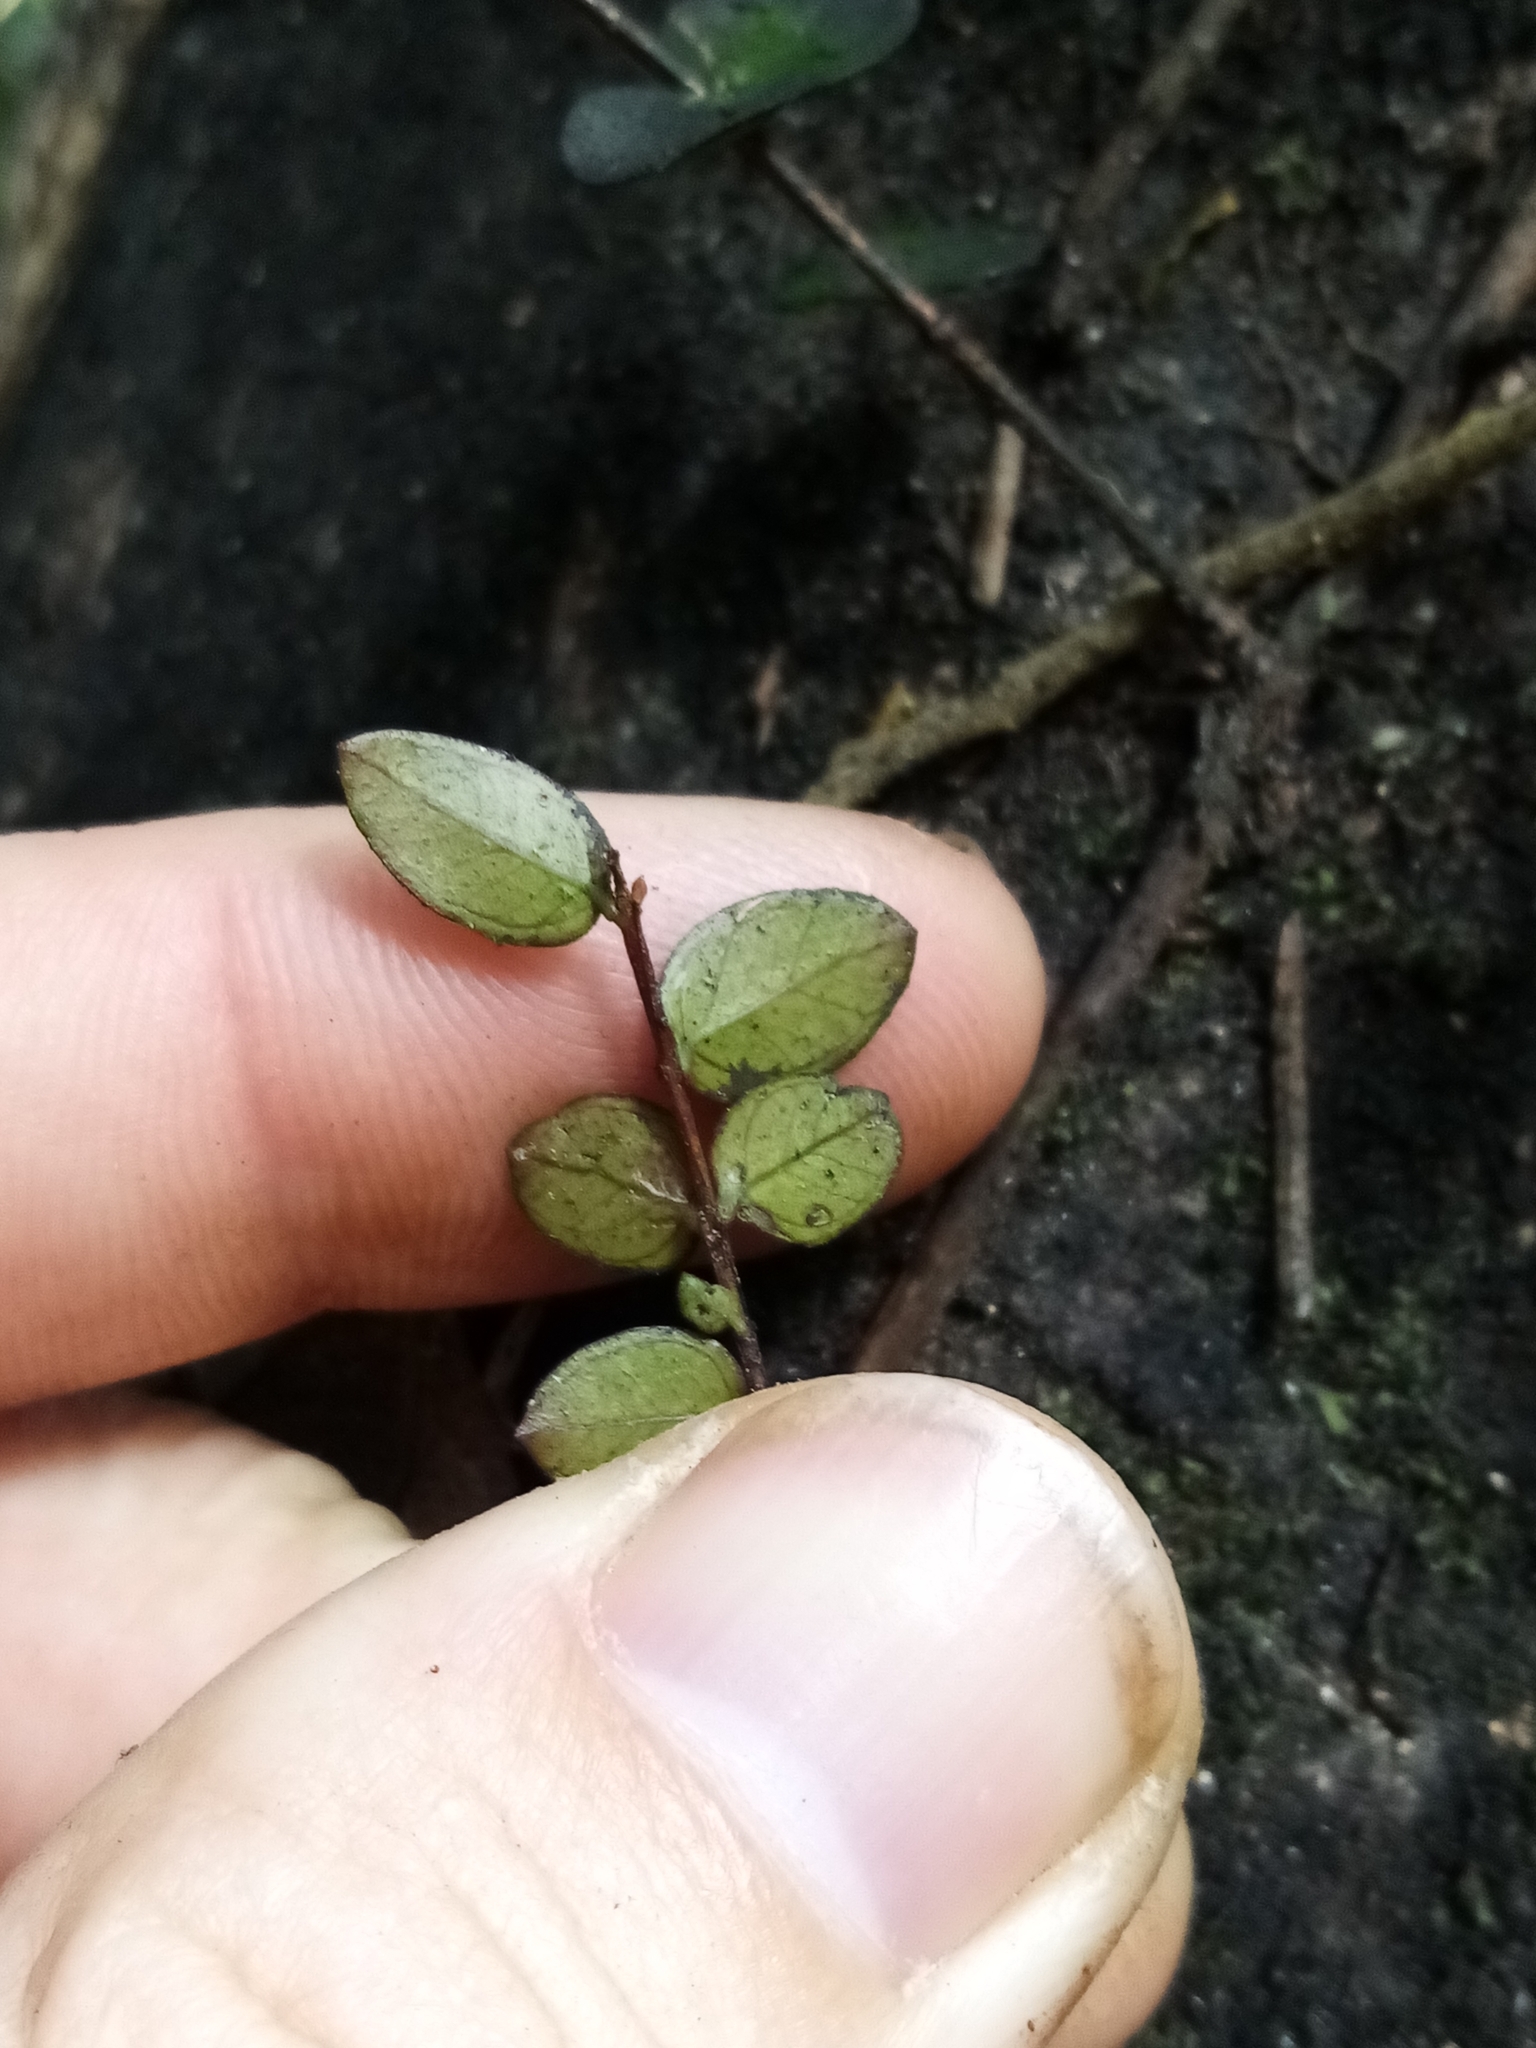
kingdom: Plantae
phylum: Tracheophyta
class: Magnoliopsida
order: Myrtales
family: Myrtaceae
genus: Metrosideros
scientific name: Metrosideros diffusa
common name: Small ratavine
